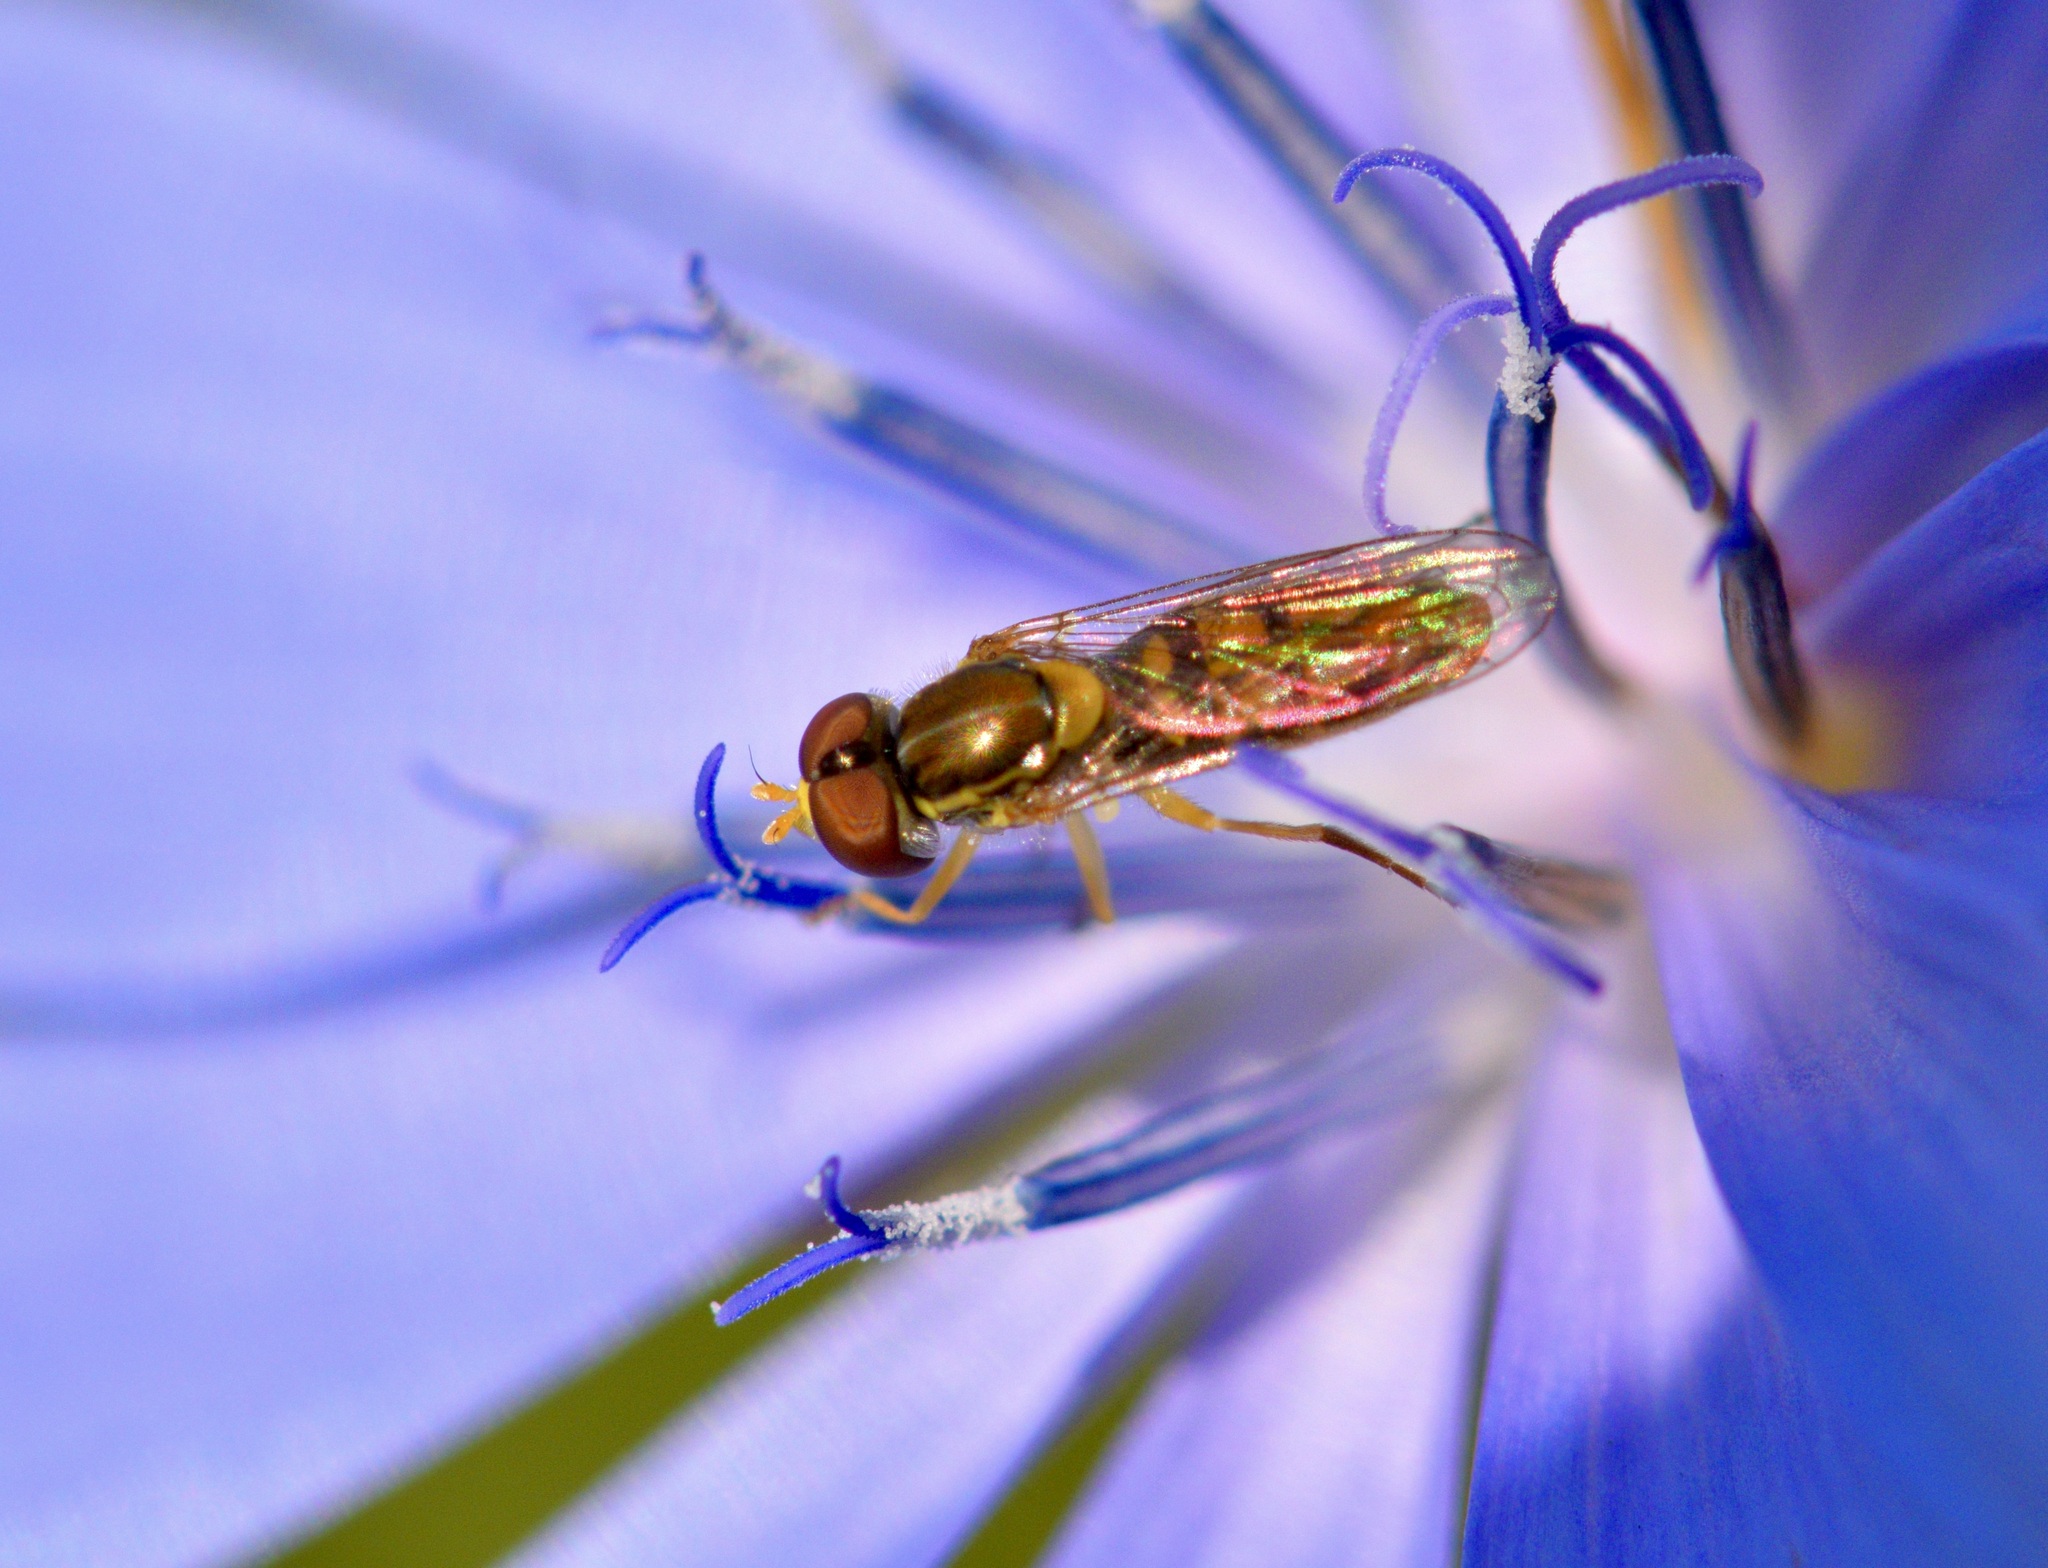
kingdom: Animalia
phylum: Arthropoda
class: Insecta
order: Diptera
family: Syrphidae
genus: Toxomerus
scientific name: Toxomerus marginatus
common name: Syrphid fly
